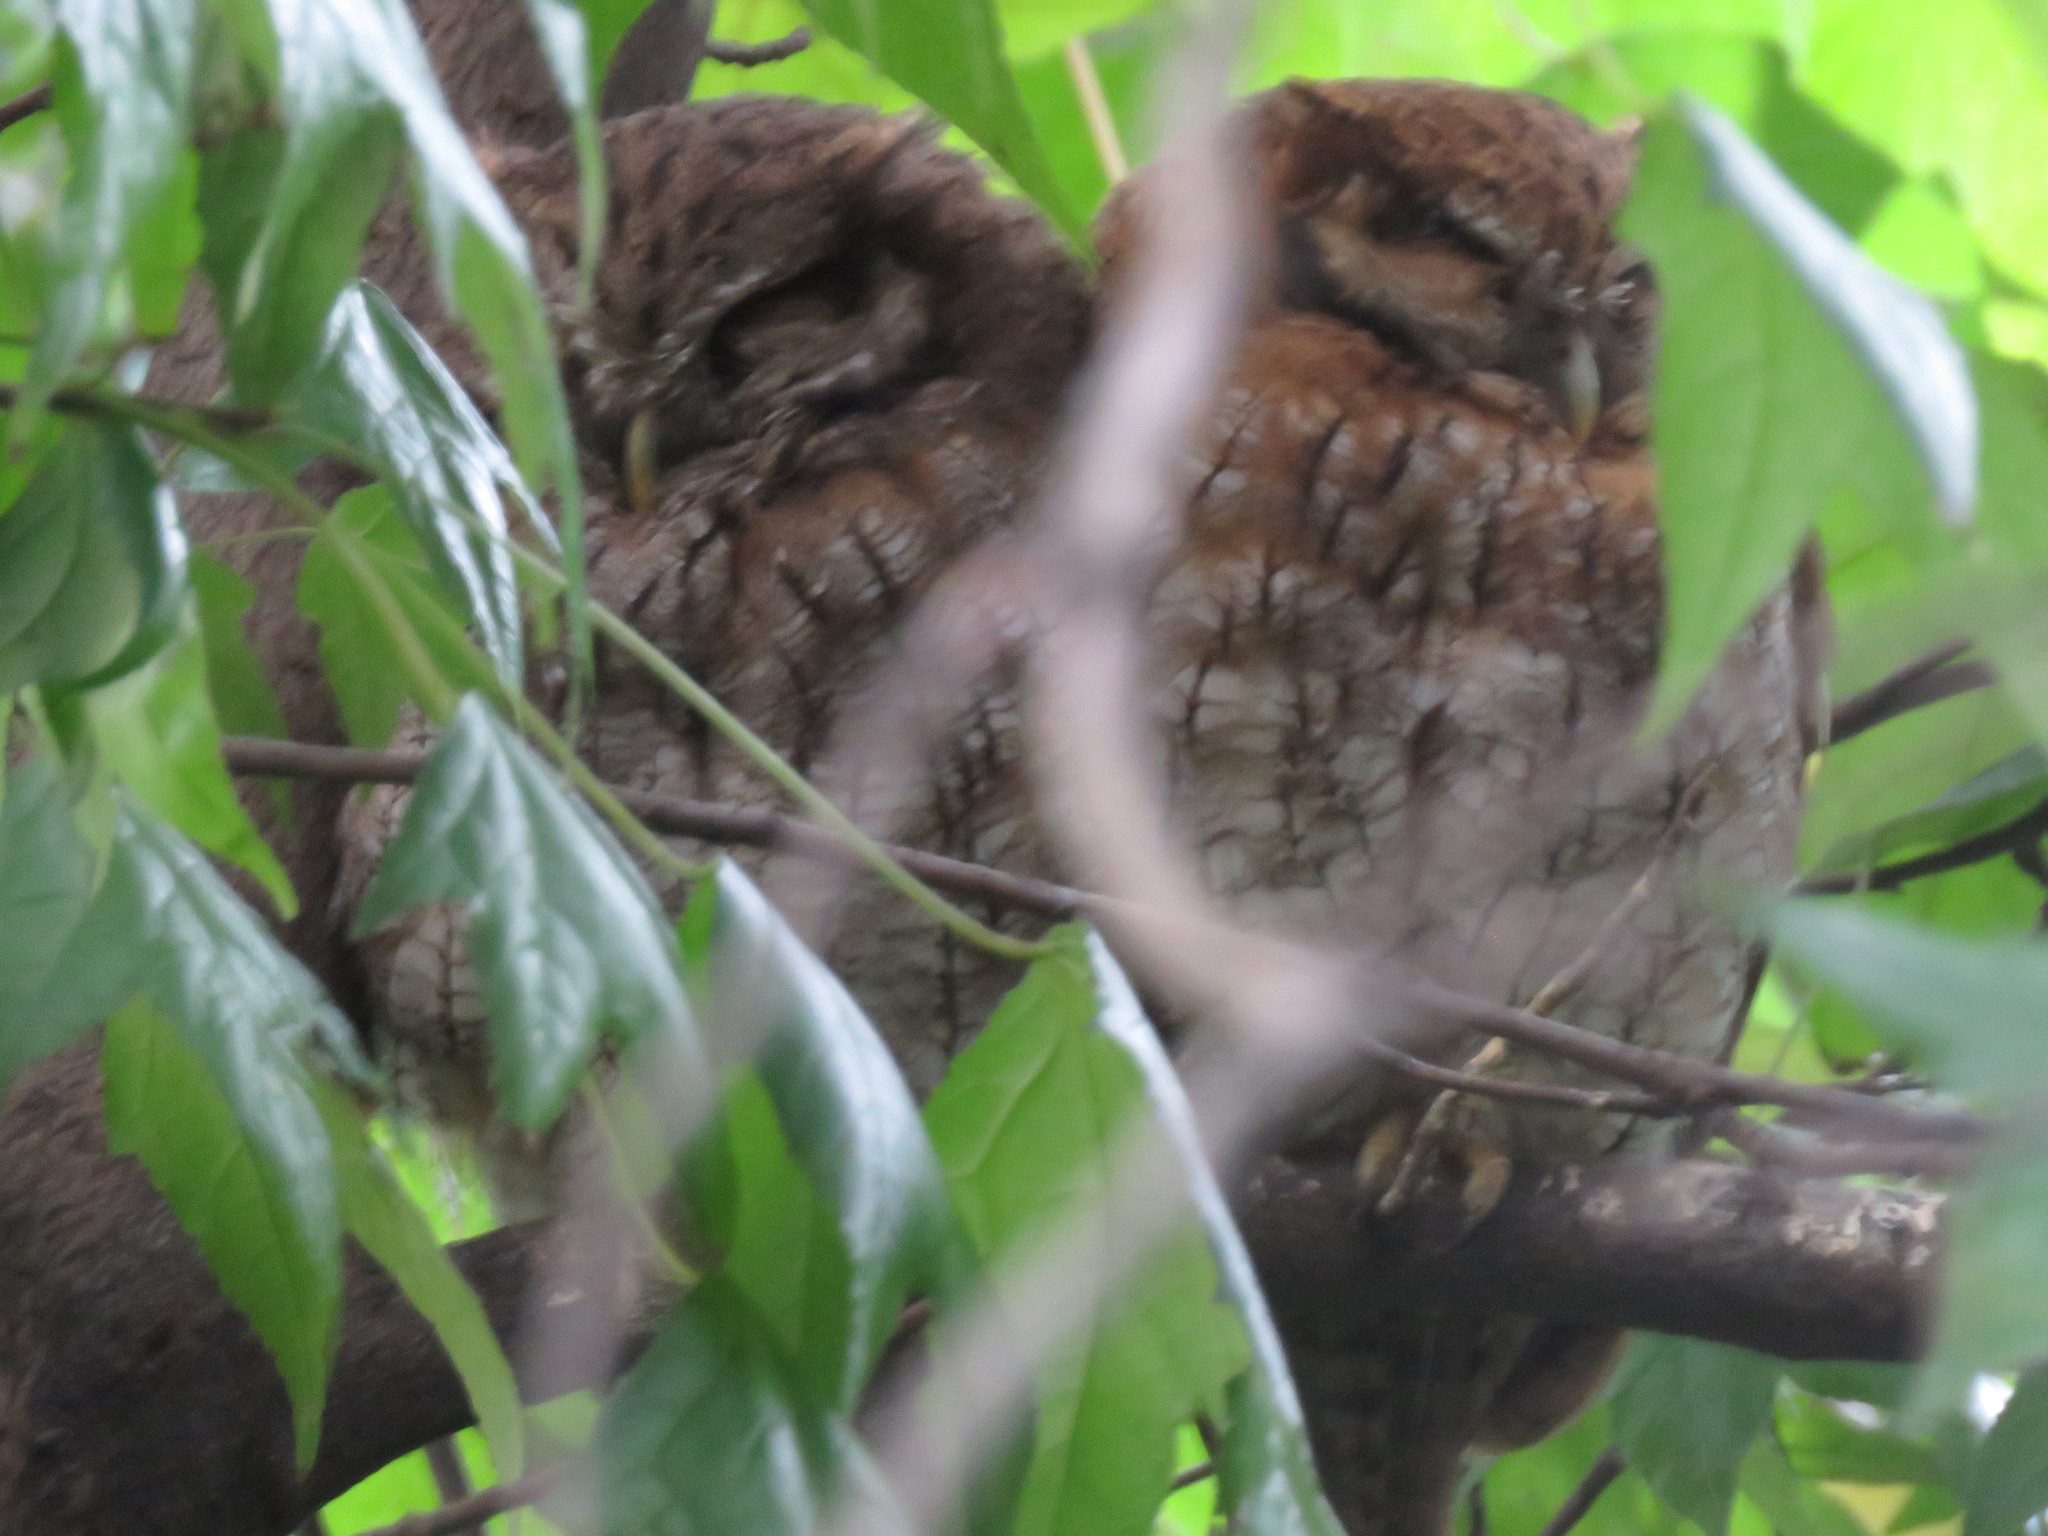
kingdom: Animalia
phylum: Chordata
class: Aves
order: Strigiformes
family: Strigidae
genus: Megascops
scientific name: Megascops choliba
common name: Tropical screech-owl
